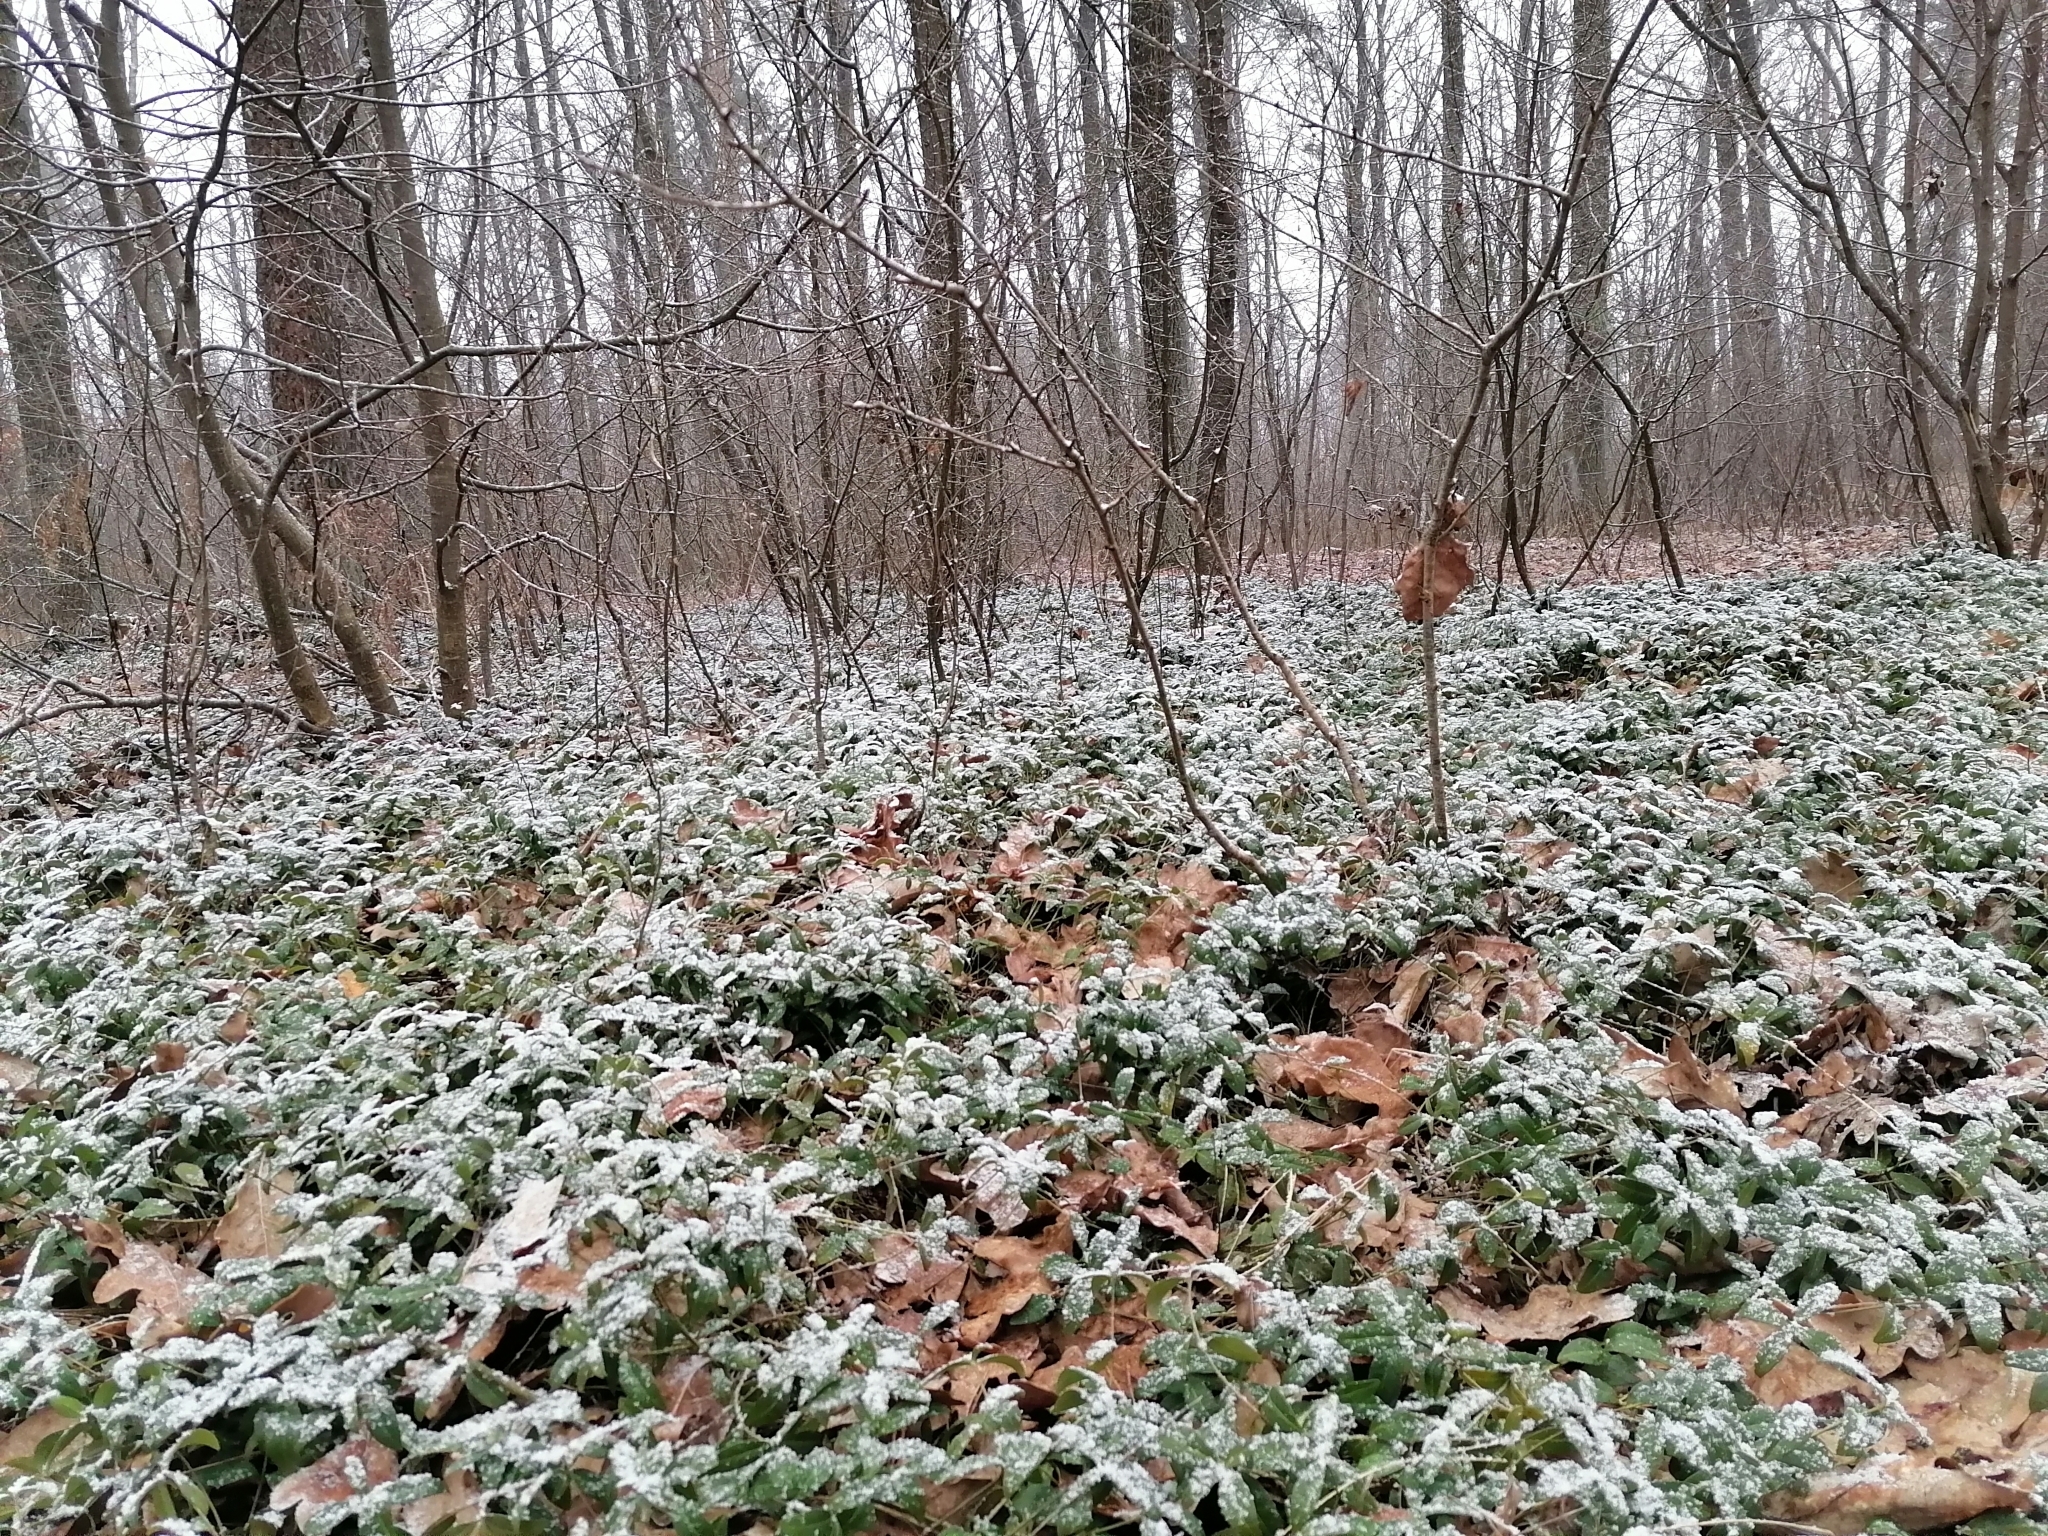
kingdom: Plantae
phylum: Tracheophyta
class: Magnoliopsida
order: Gentianales
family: Apocynaceae
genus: Vinca
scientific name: Vinca minor
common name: Lesser periwinkle
